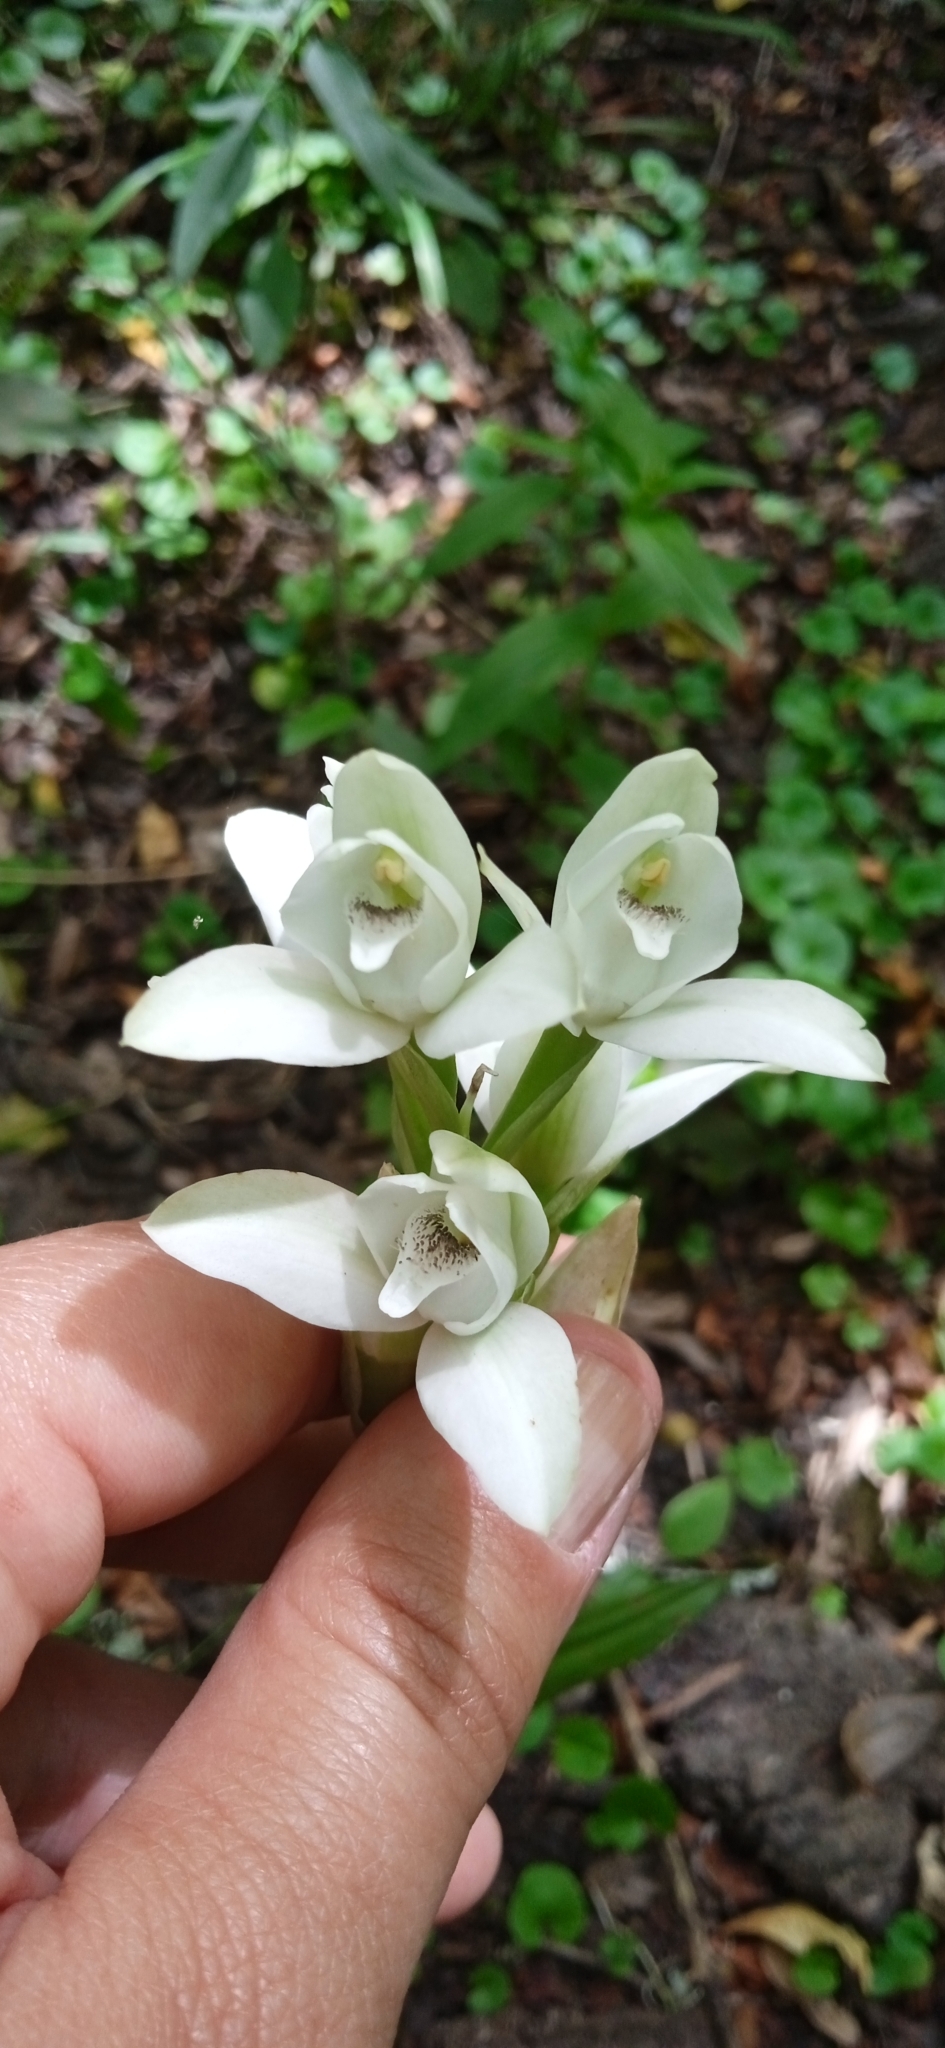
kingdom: Plantae
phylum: Tracheophyta
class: Liliopsida
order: Asparagales
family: Orchidaceae
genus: Chloraea
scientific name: Chloraea membranacea
